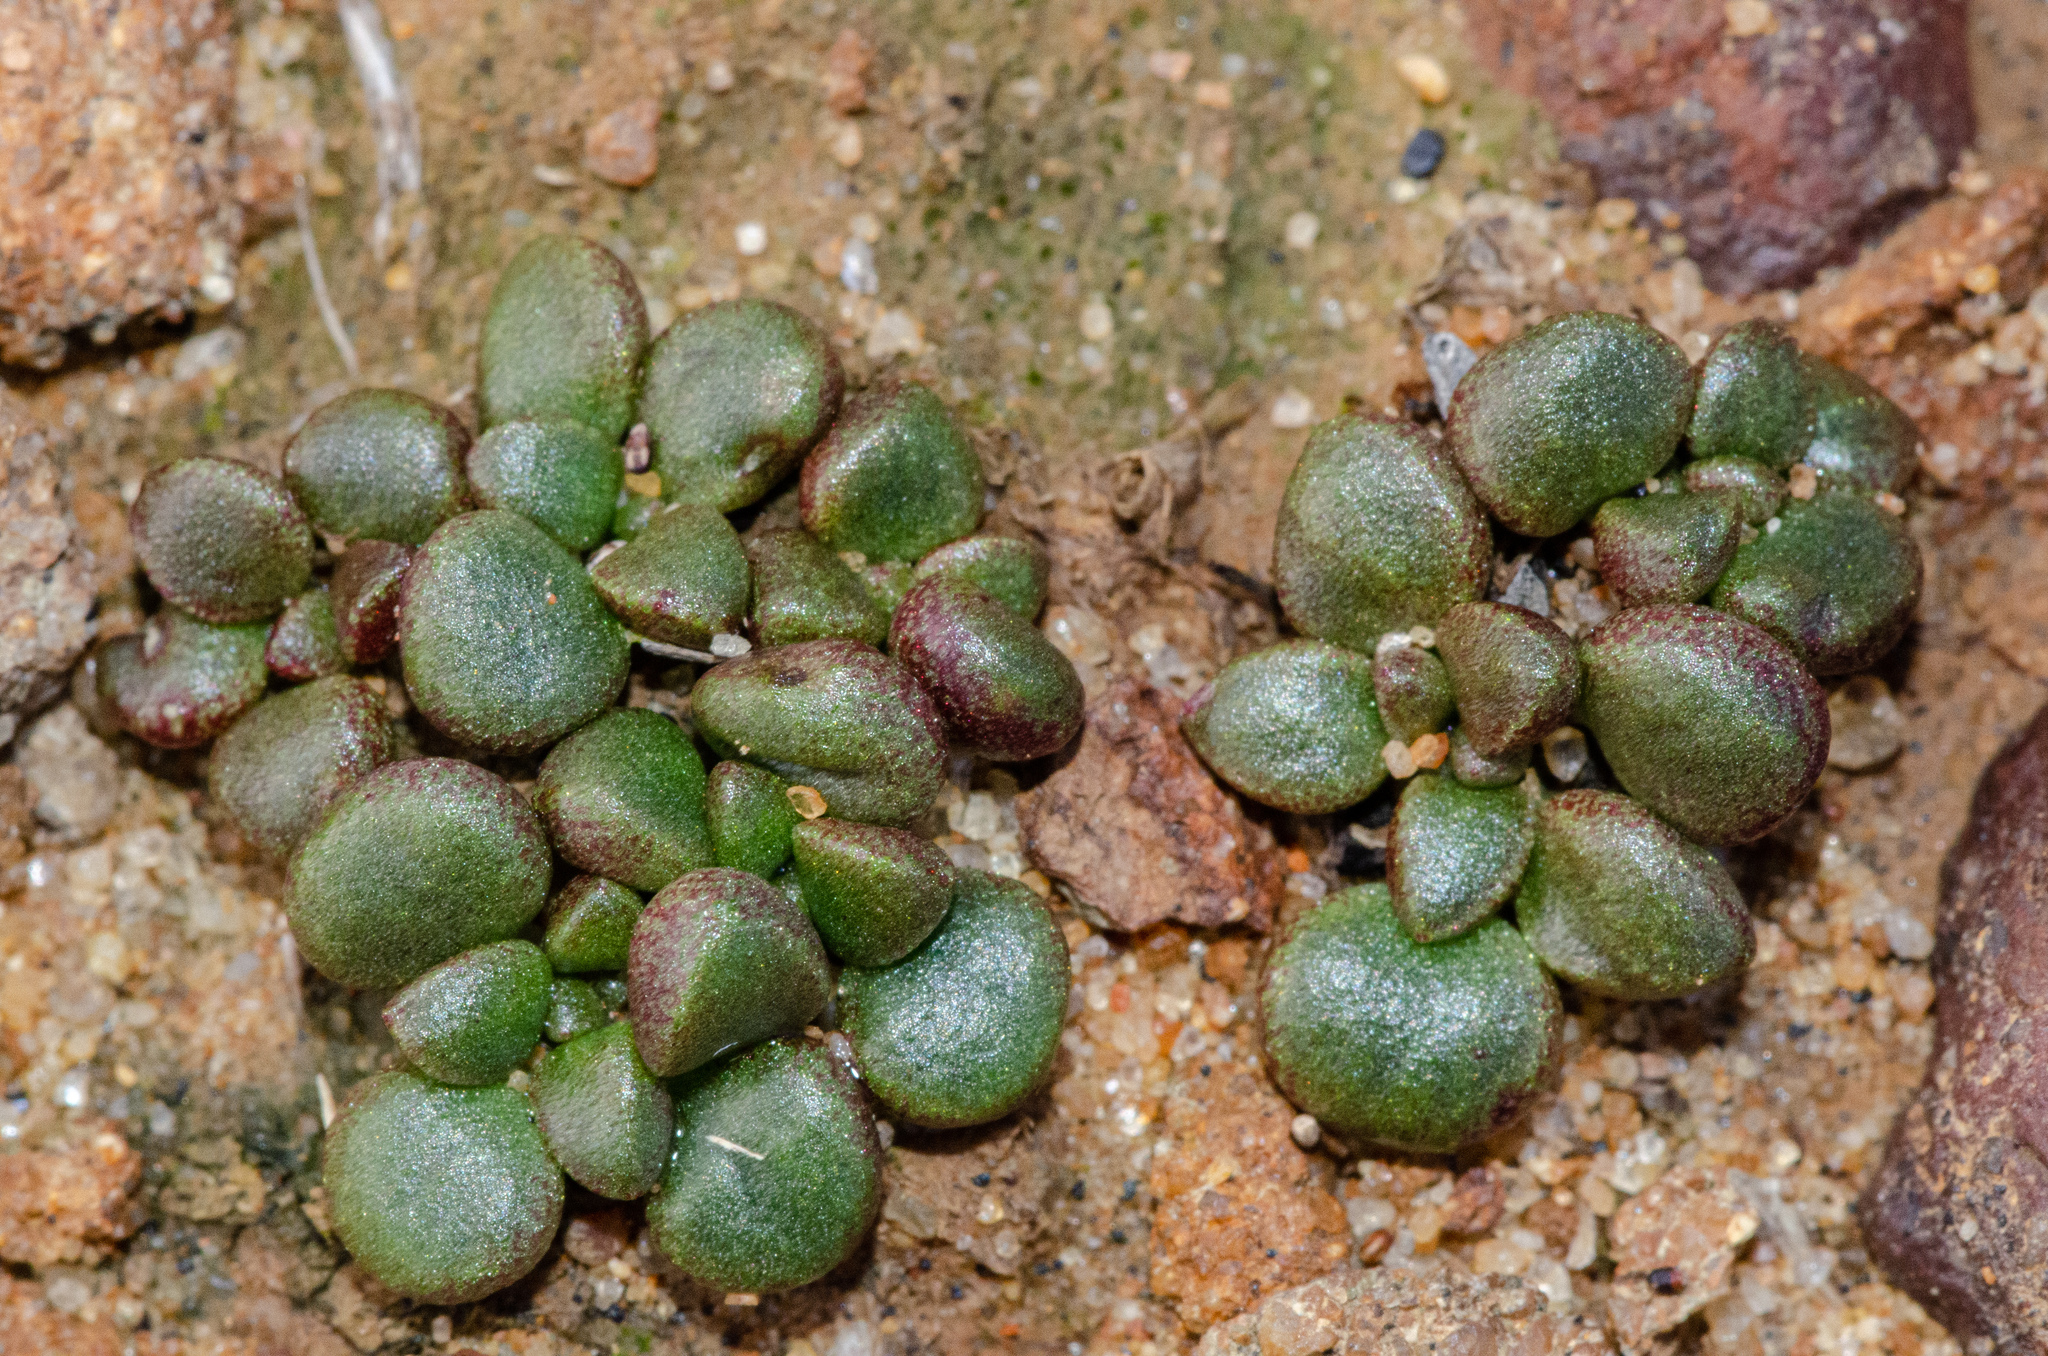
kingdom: Plantae
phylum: Tracheophyta
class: Magnoliopsida
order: Saxifragales
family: Crassulaceae
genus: Dudleya
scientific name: Dudleya blochmaniae
